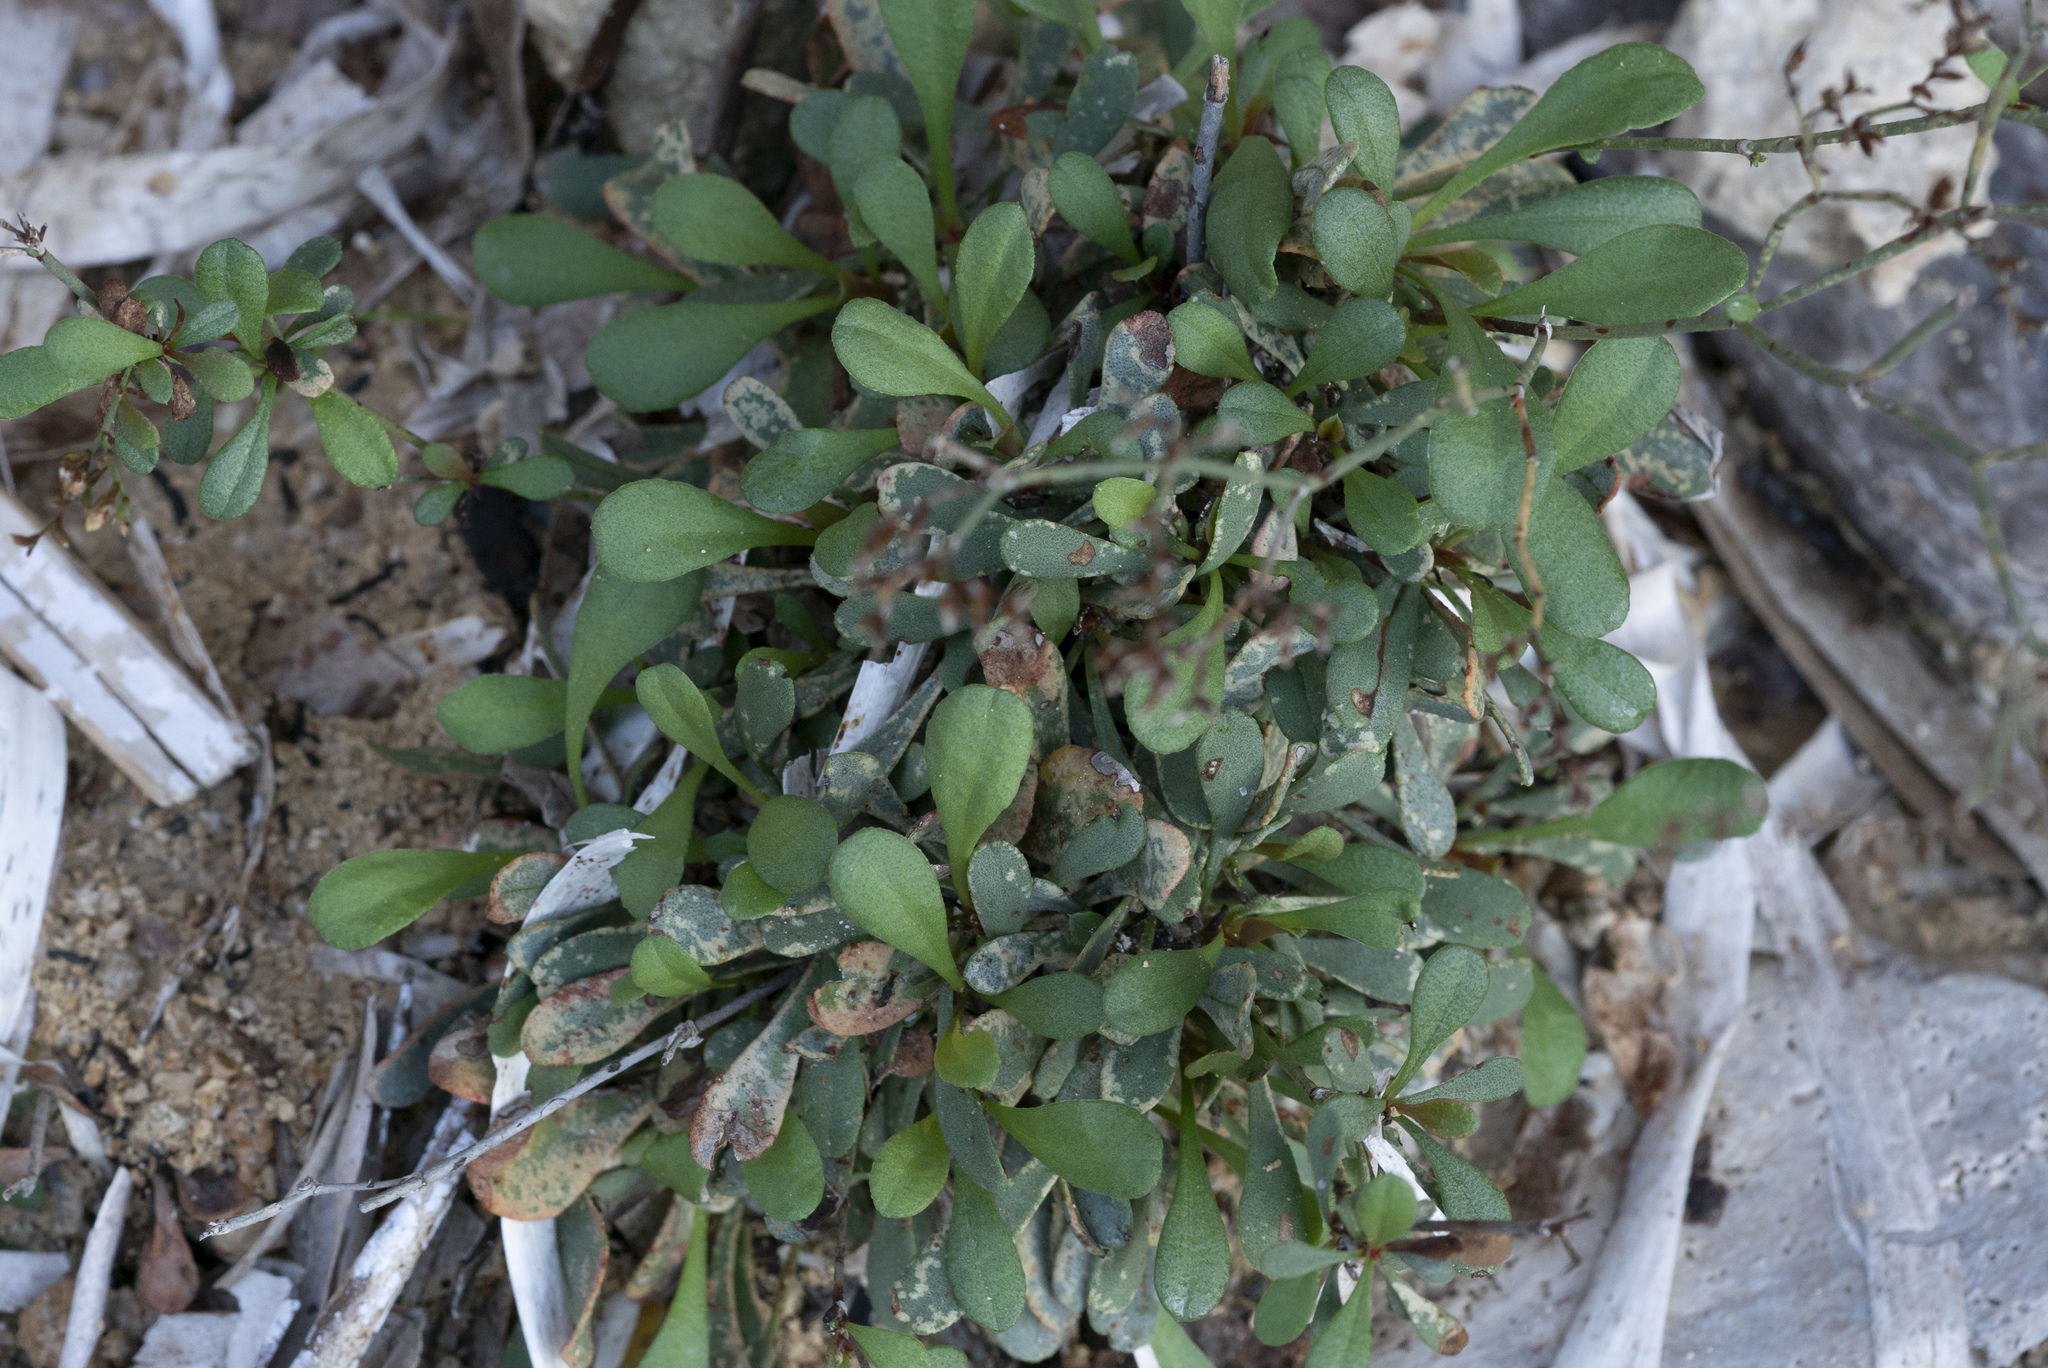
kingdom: Plantae
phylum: Tracheophyta
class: Magnoliopsida
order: Caryophyllales
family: Plumbaginaceae
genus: Limonium
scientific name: Limonium aucheri
